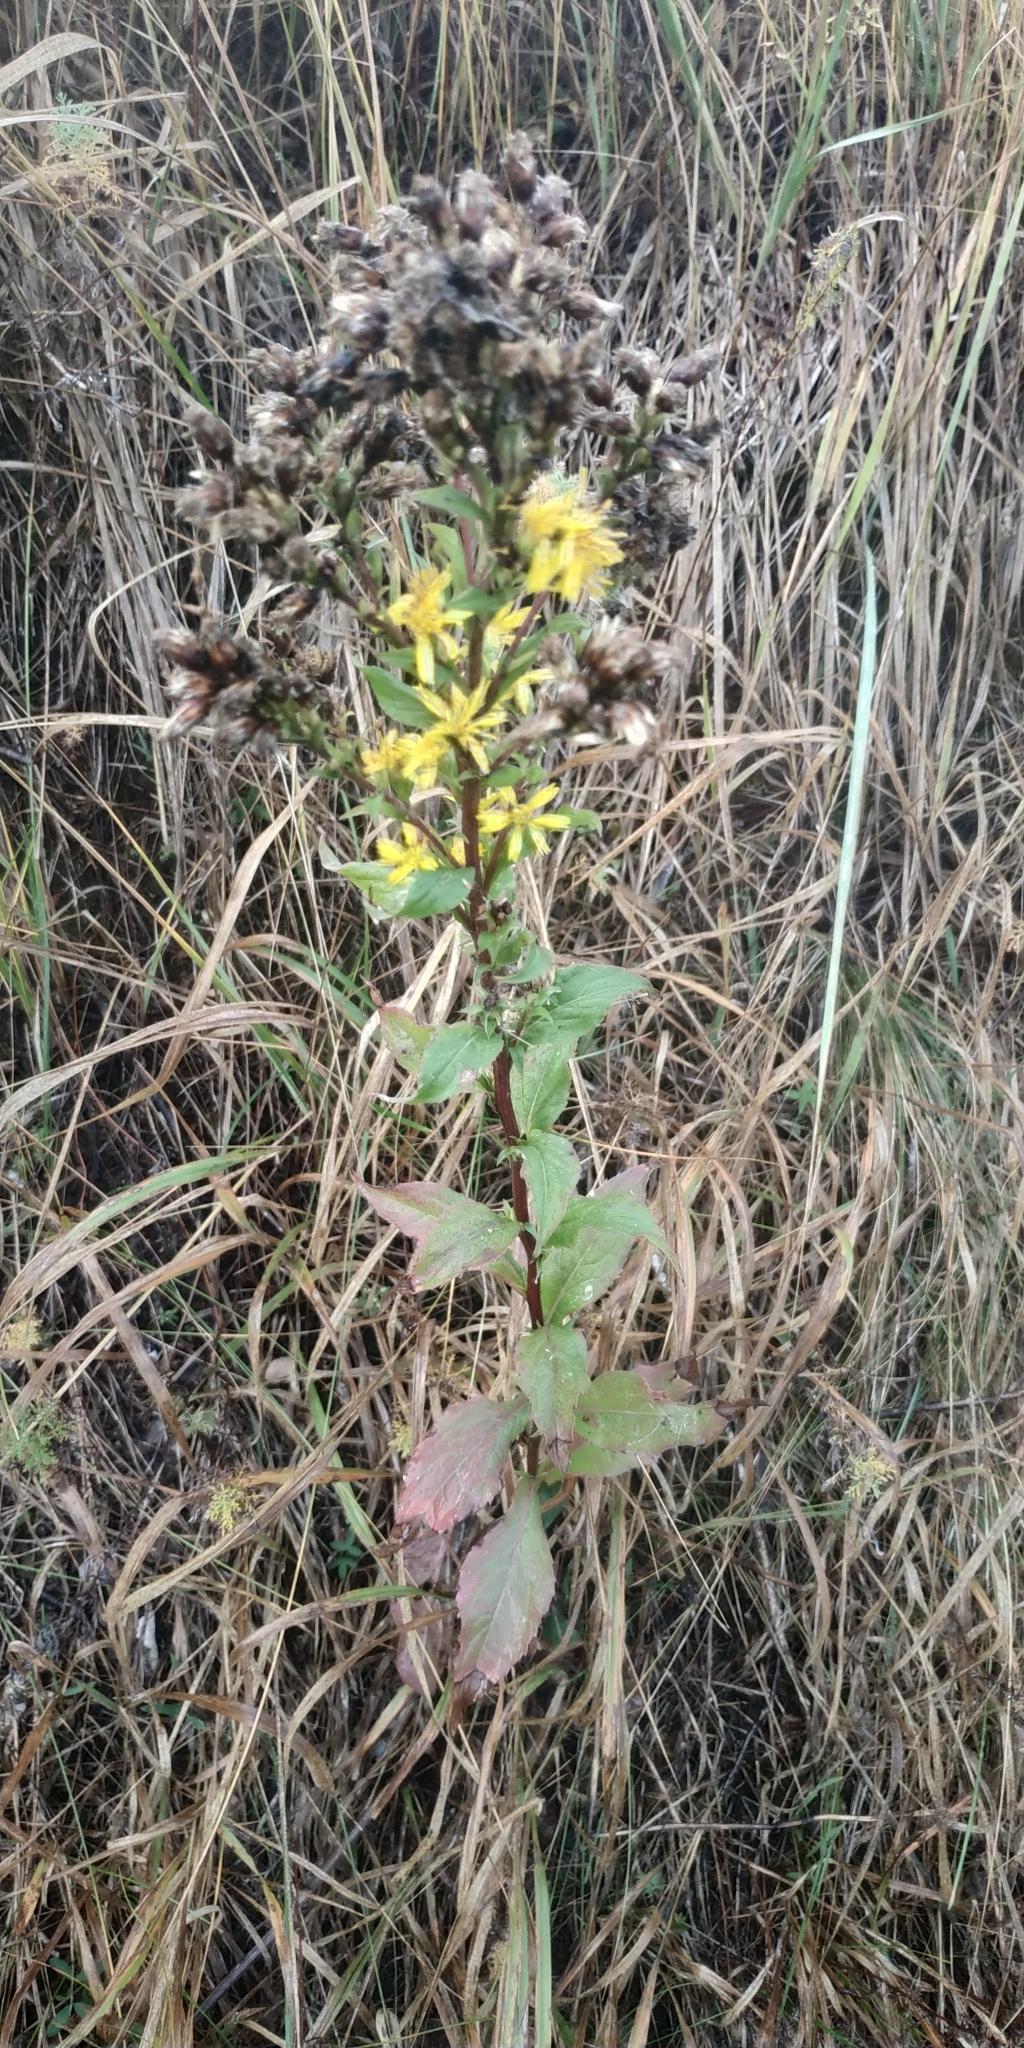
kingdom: Plantae
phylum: Tracheophyta
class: Magnoliopsida
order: Asterales
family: Asteraceae
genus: Solidago
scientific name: Solidago virgaurea
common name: Goldenrod
